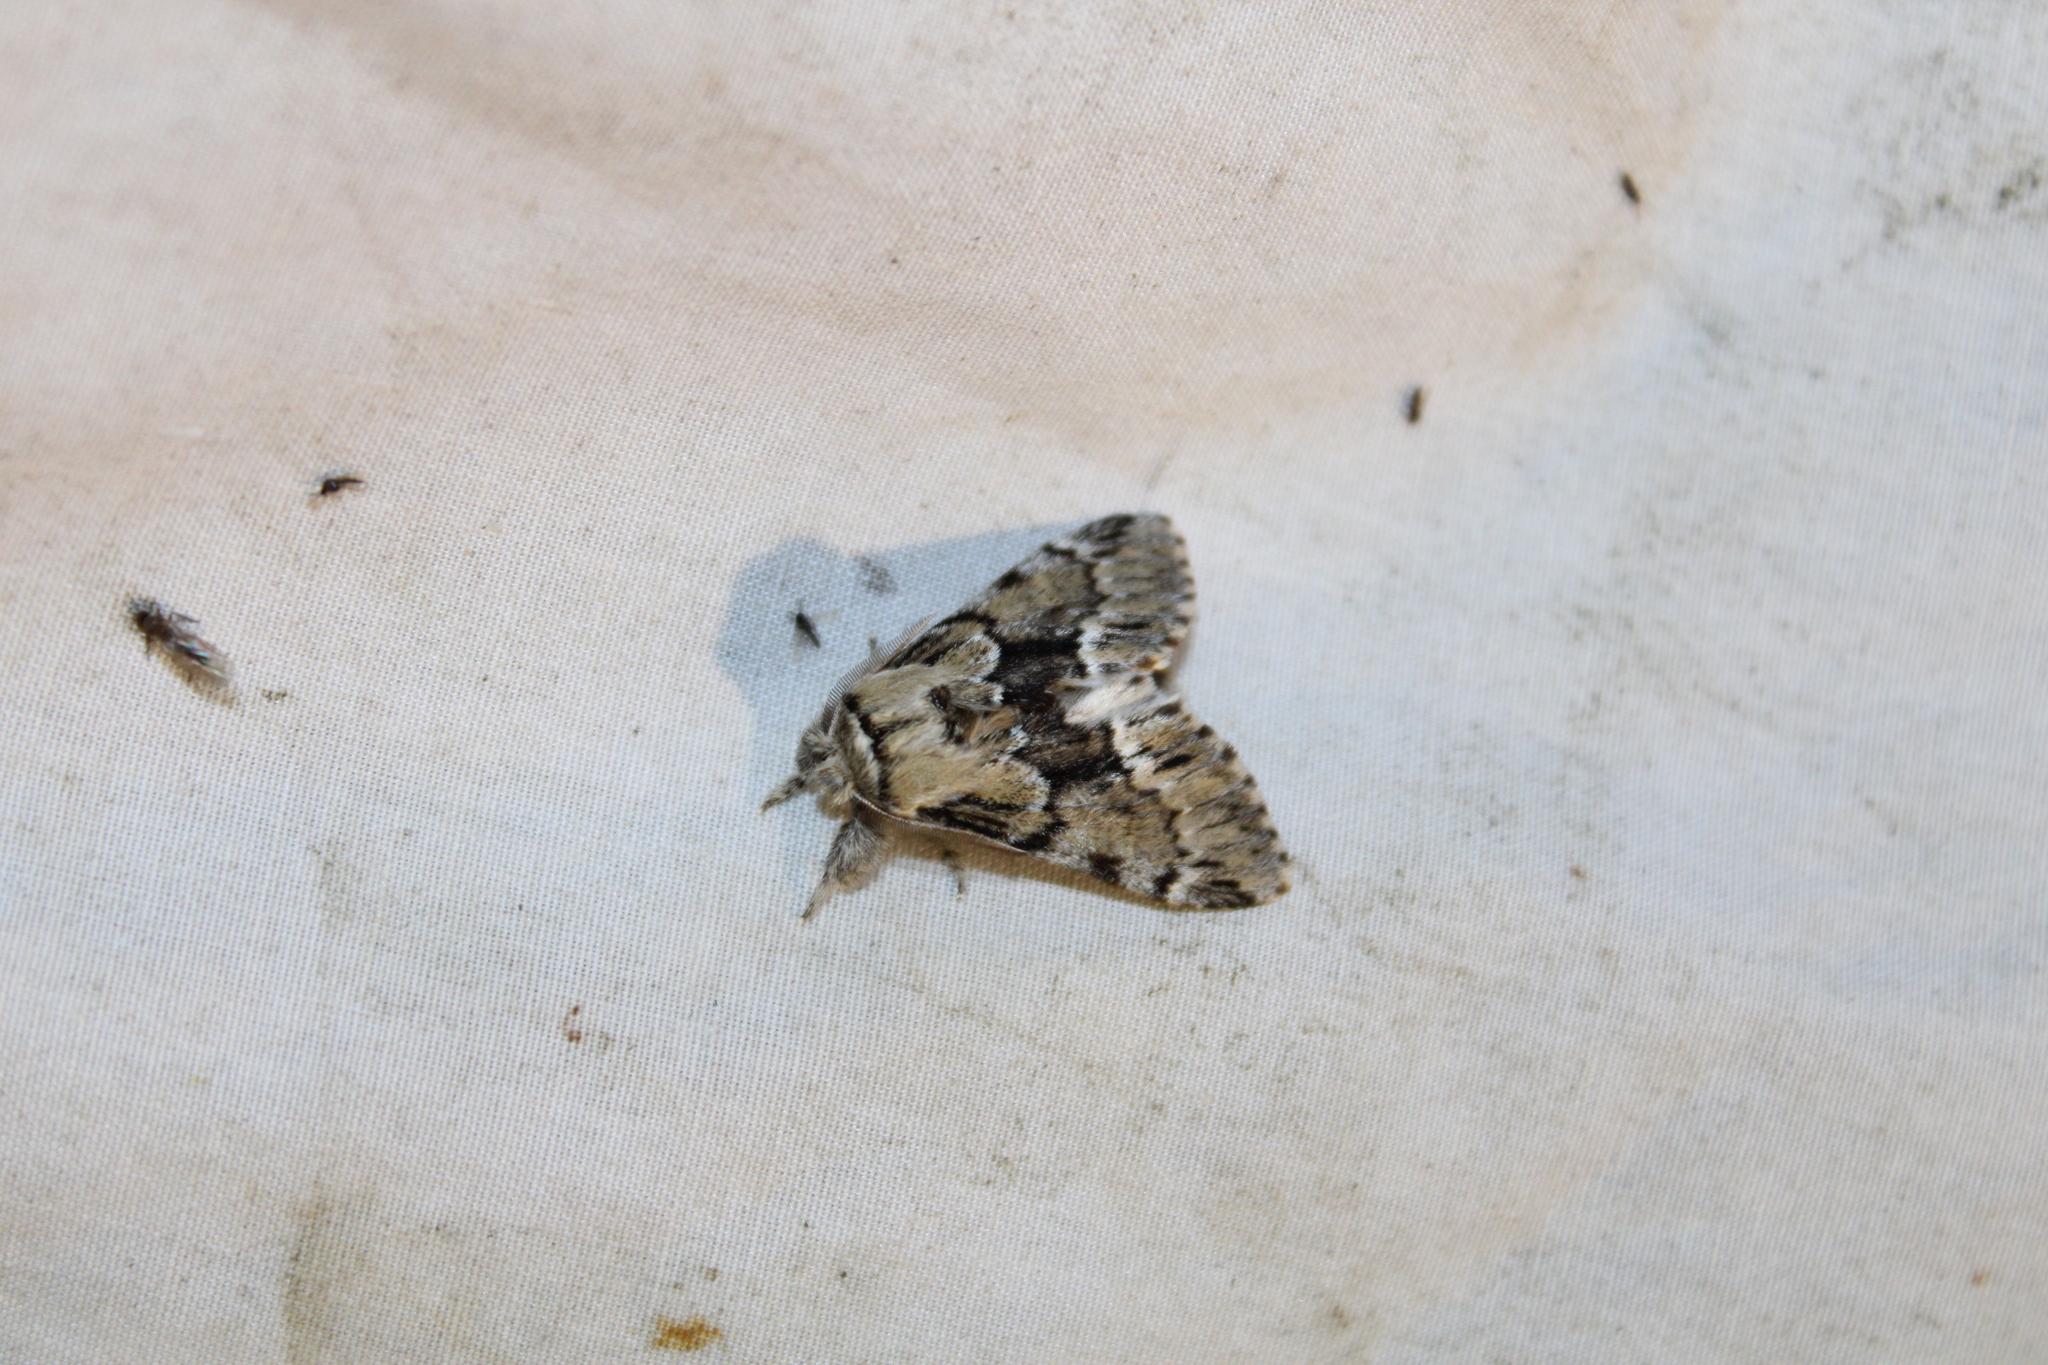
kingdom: Animalia
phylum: Arthropoda
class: Insecta
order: Lepidoptera
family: Notodontidae
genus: Paraeschra
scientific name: Paraeschra georgica
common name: Georgian prominent
